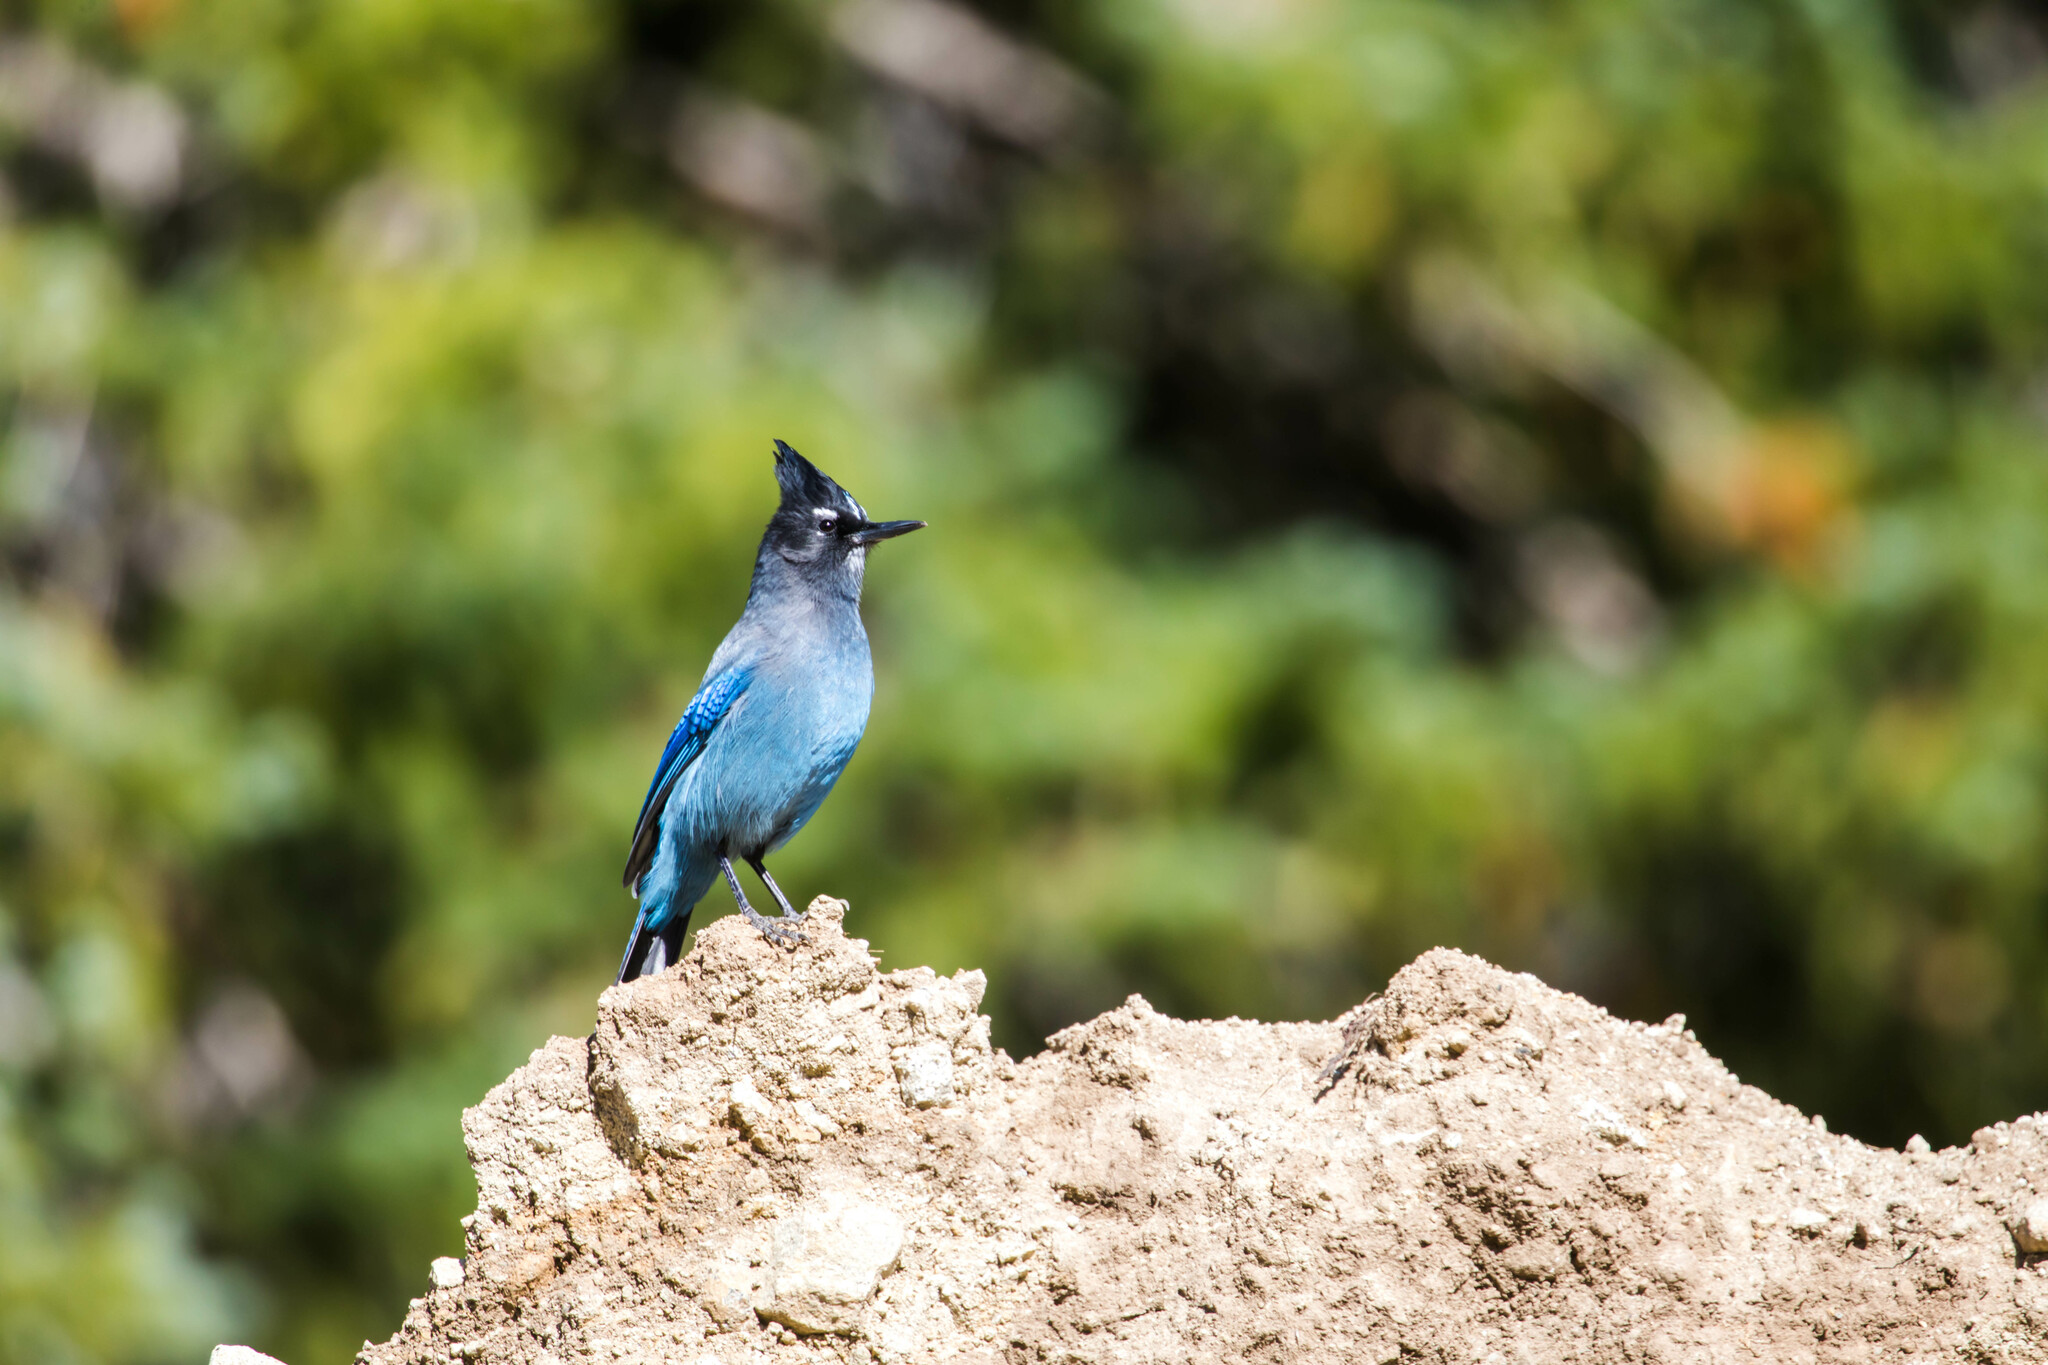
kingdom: Animalia
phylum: Chordata
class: Aves
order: Passeriformes
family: Corvidae
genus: Cyanocitta
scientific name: Cyanocitta stelleri
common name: Steller's jay
